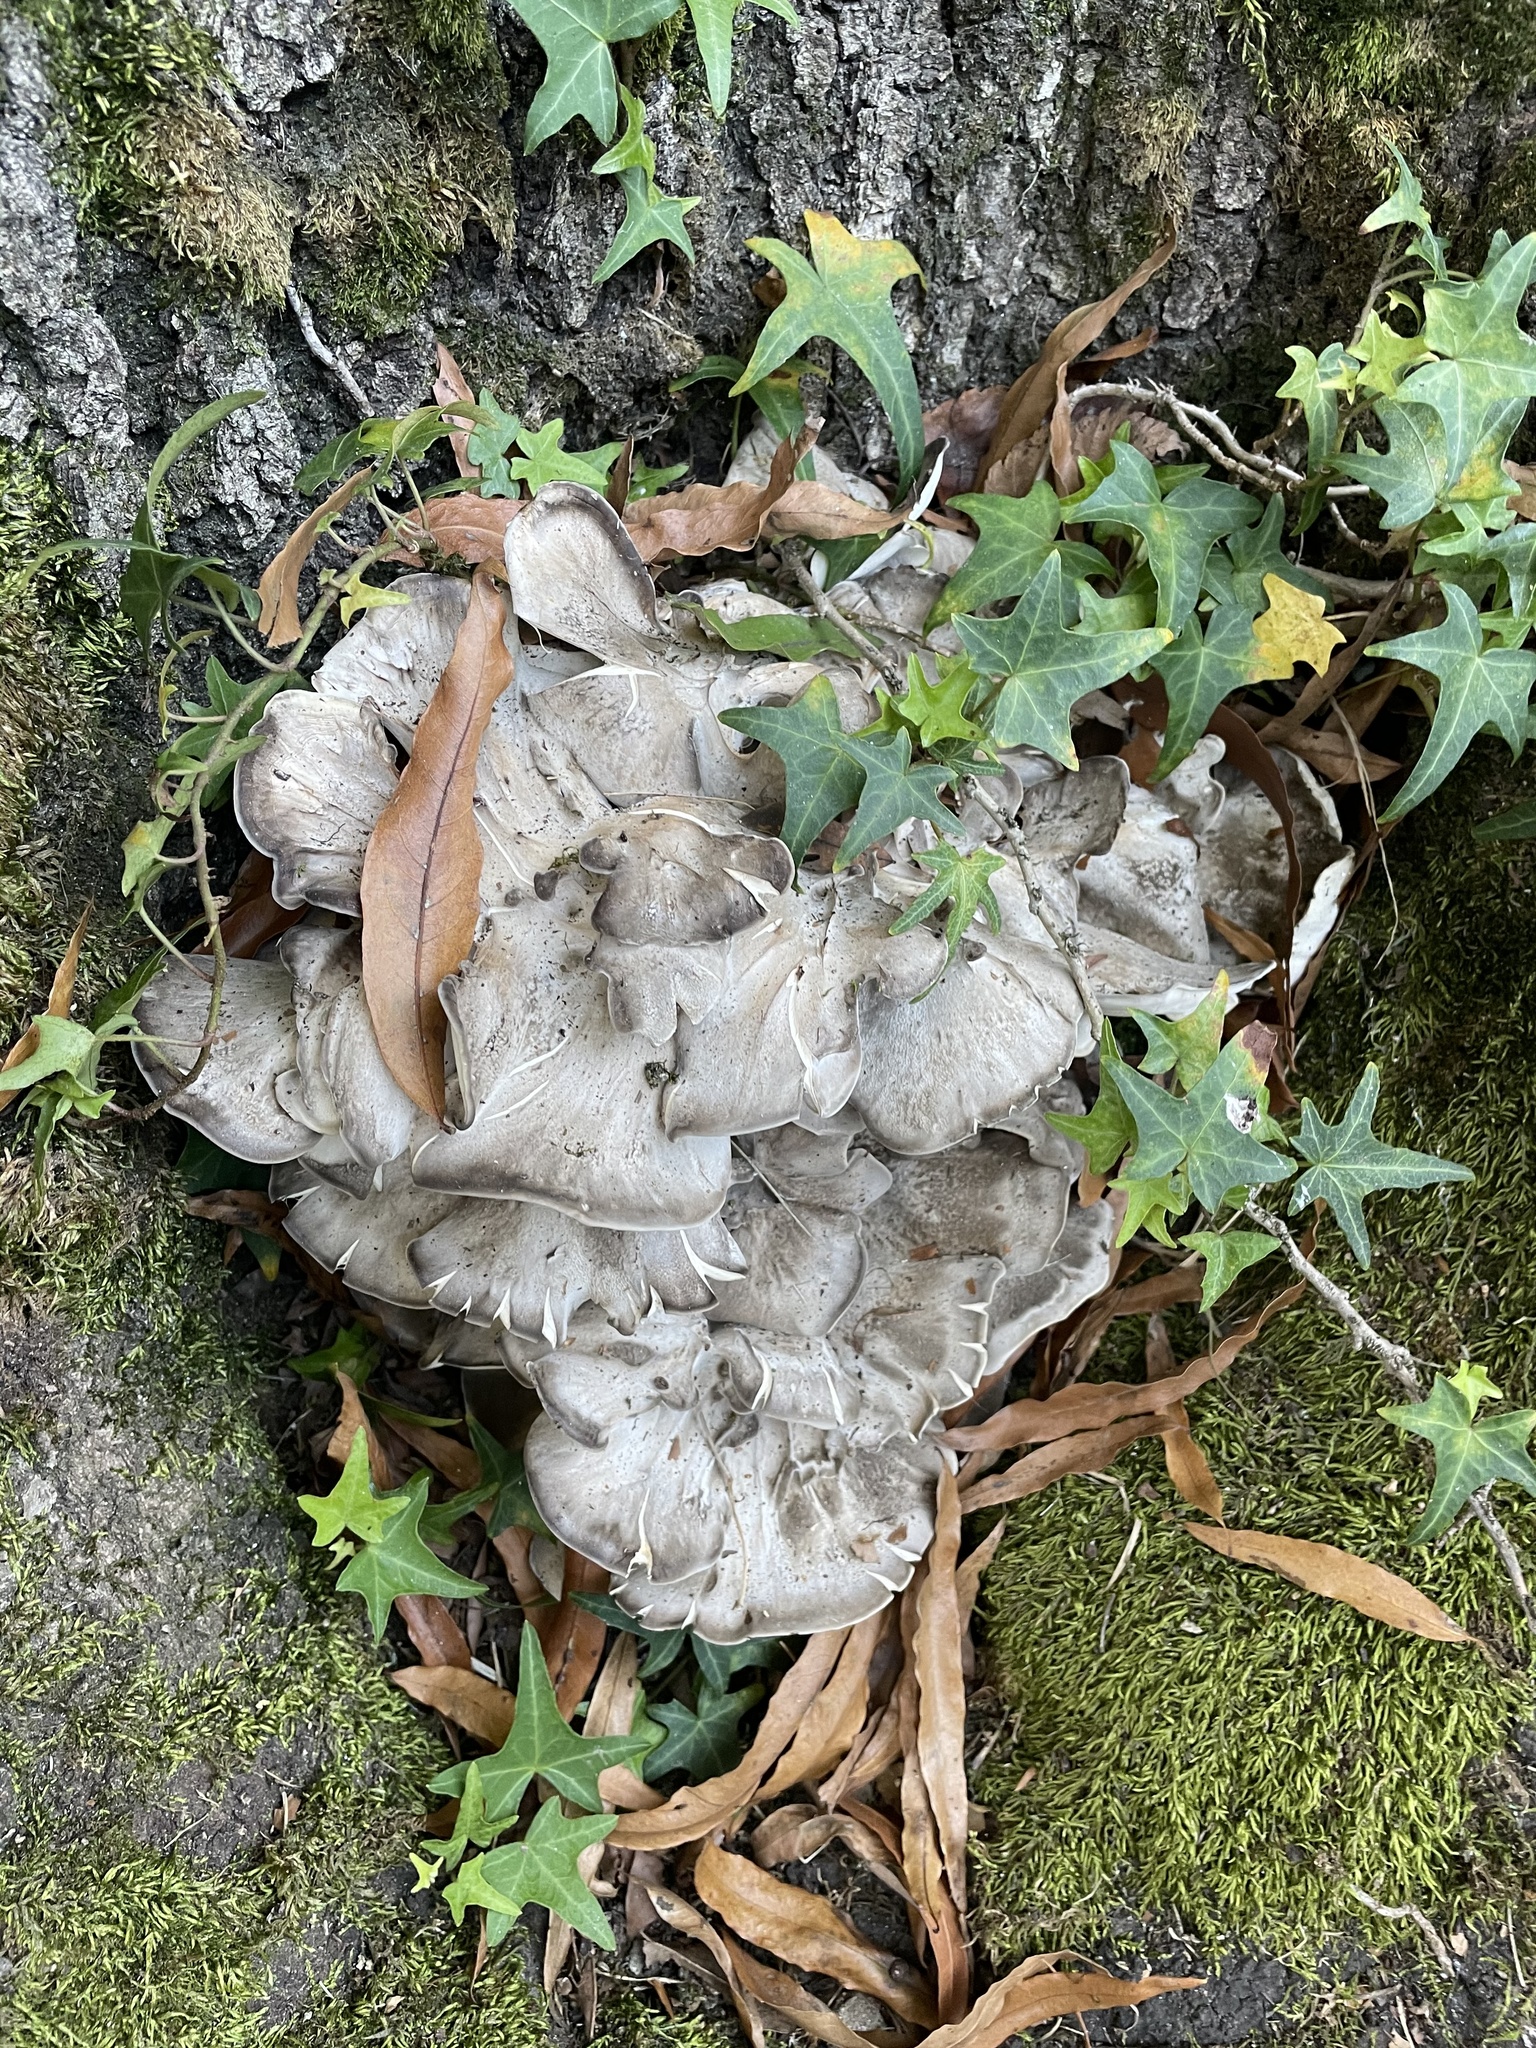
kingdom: Fungi
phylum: Basidiomycota
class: Agaricomycetes
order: Polyporales
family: Grifolaceae
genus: Grifola
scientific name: Grifola frondosa
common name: Hen of the woods
